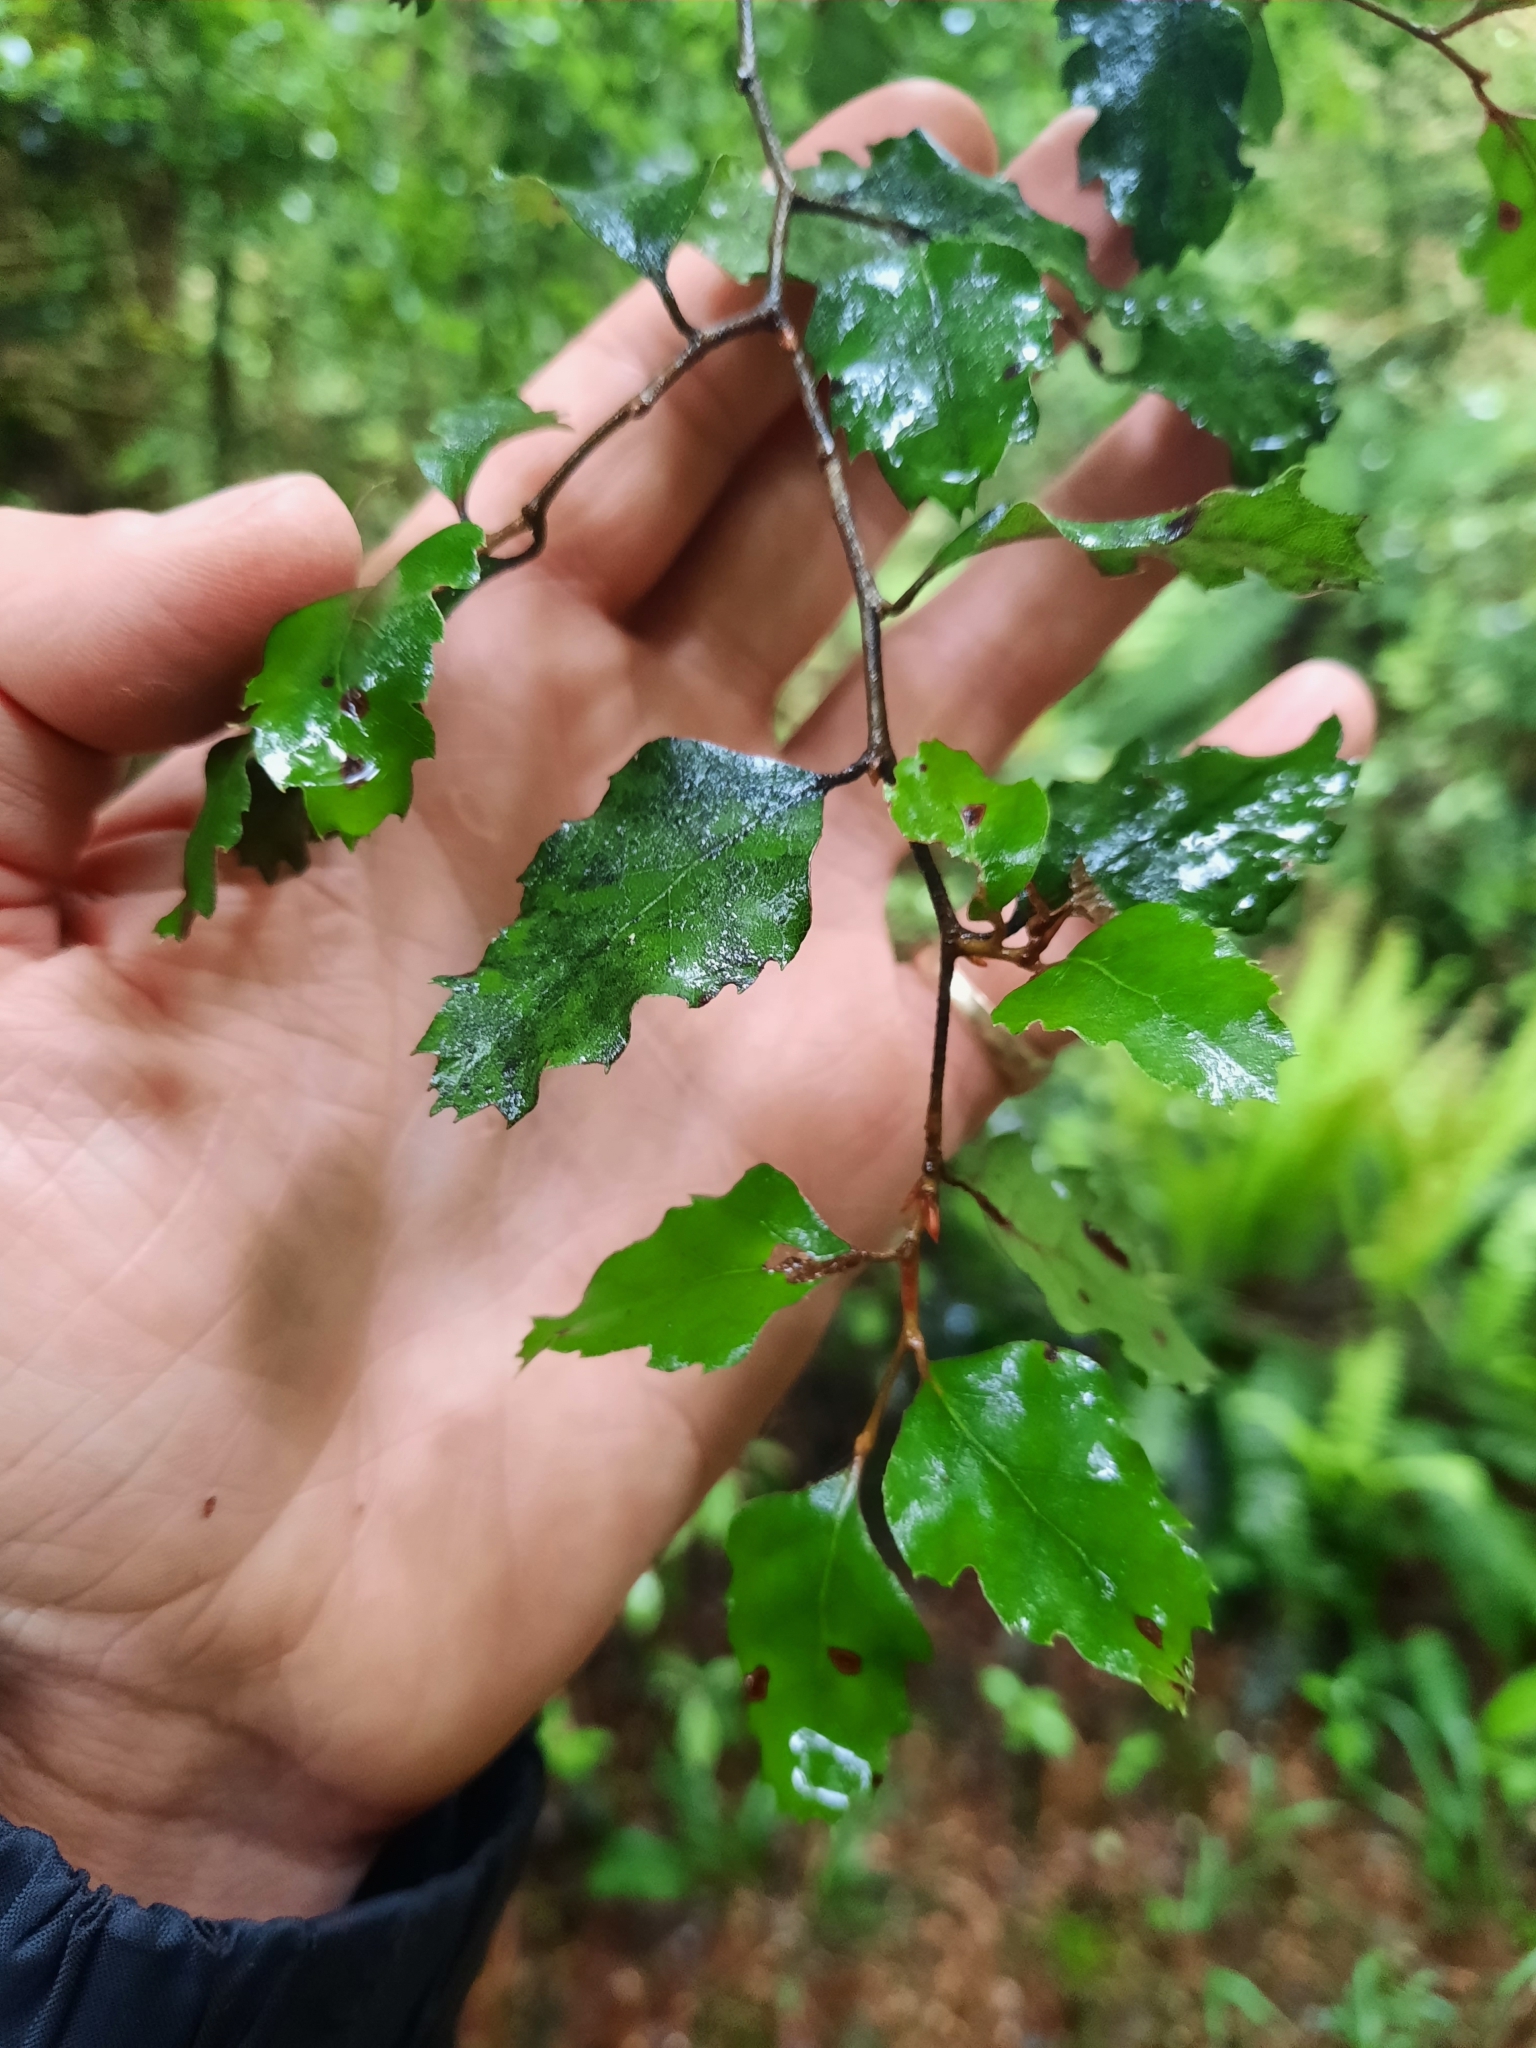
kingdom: Plantae
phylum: Tracheophyta
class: Magnoliopsida
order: Fagales
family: Nothofagaceae
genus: Nothofagus
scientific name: Nothofagus fusca
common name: Red beech
